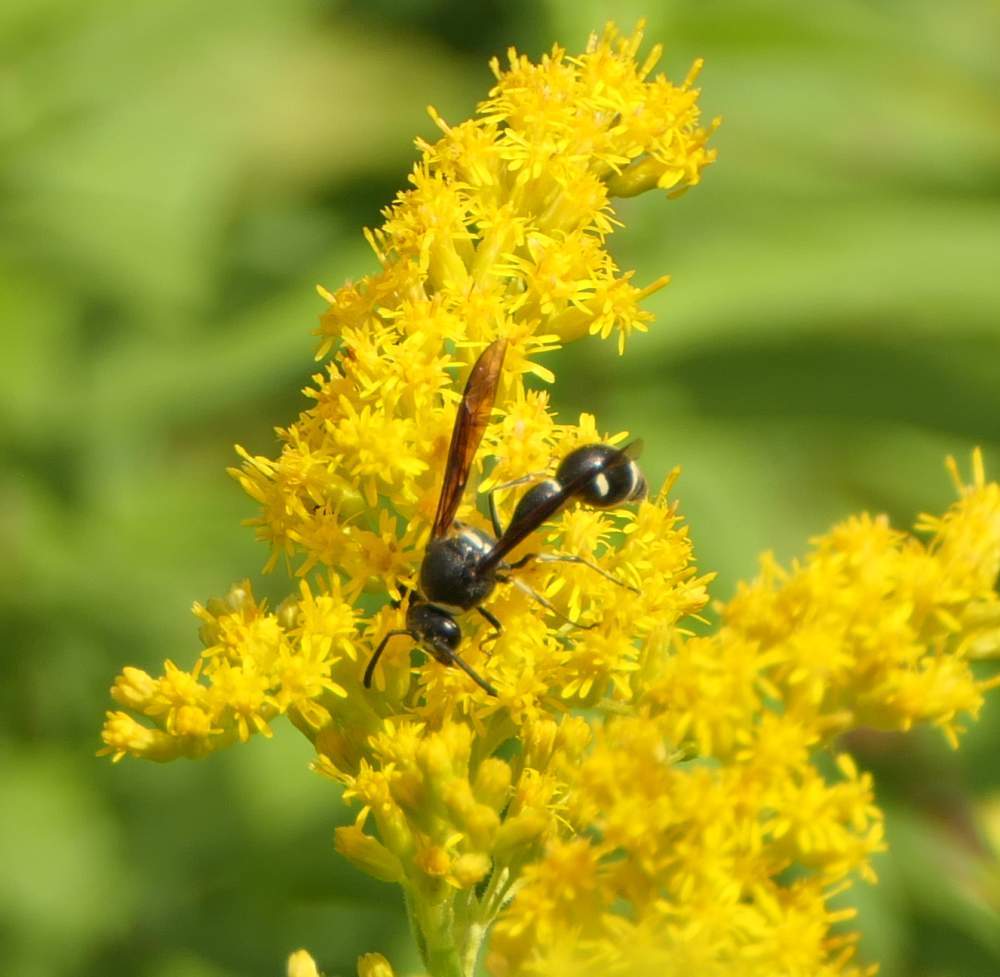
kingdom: Animalia
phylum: Arthropoda
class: Insecta
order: Hymenoptera
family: Vespidae
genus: Eumenes
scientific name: Eumenes fraternus
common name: Fraternal potter wasp
